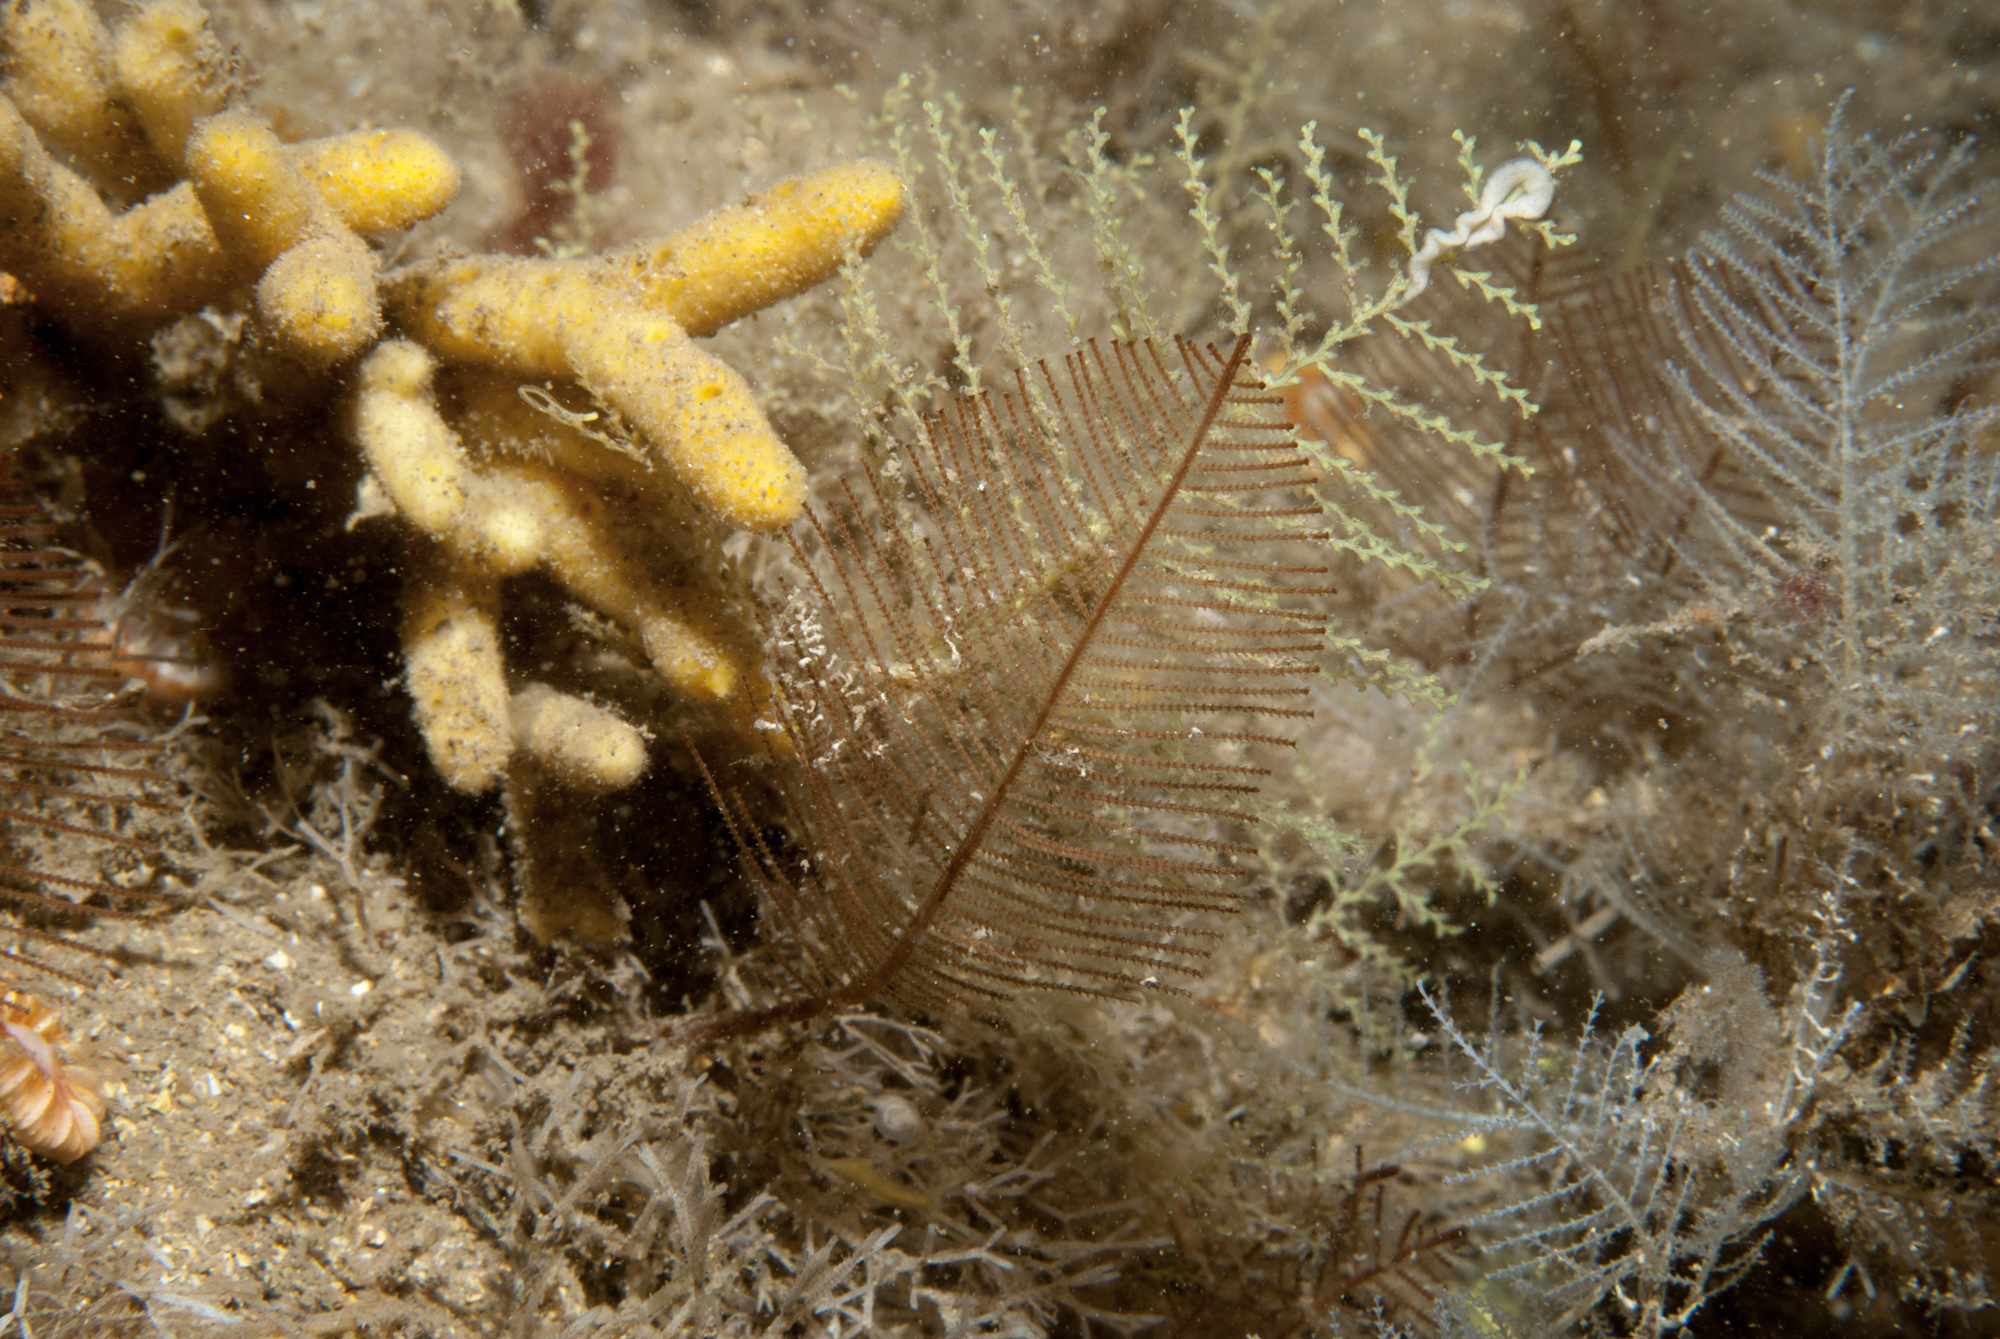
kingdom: Animalia
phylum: Cnidaria
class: Hydrozoa
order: Leptothecata
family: Sertulariidae
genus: Diphasia
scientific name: Diphasia alata
